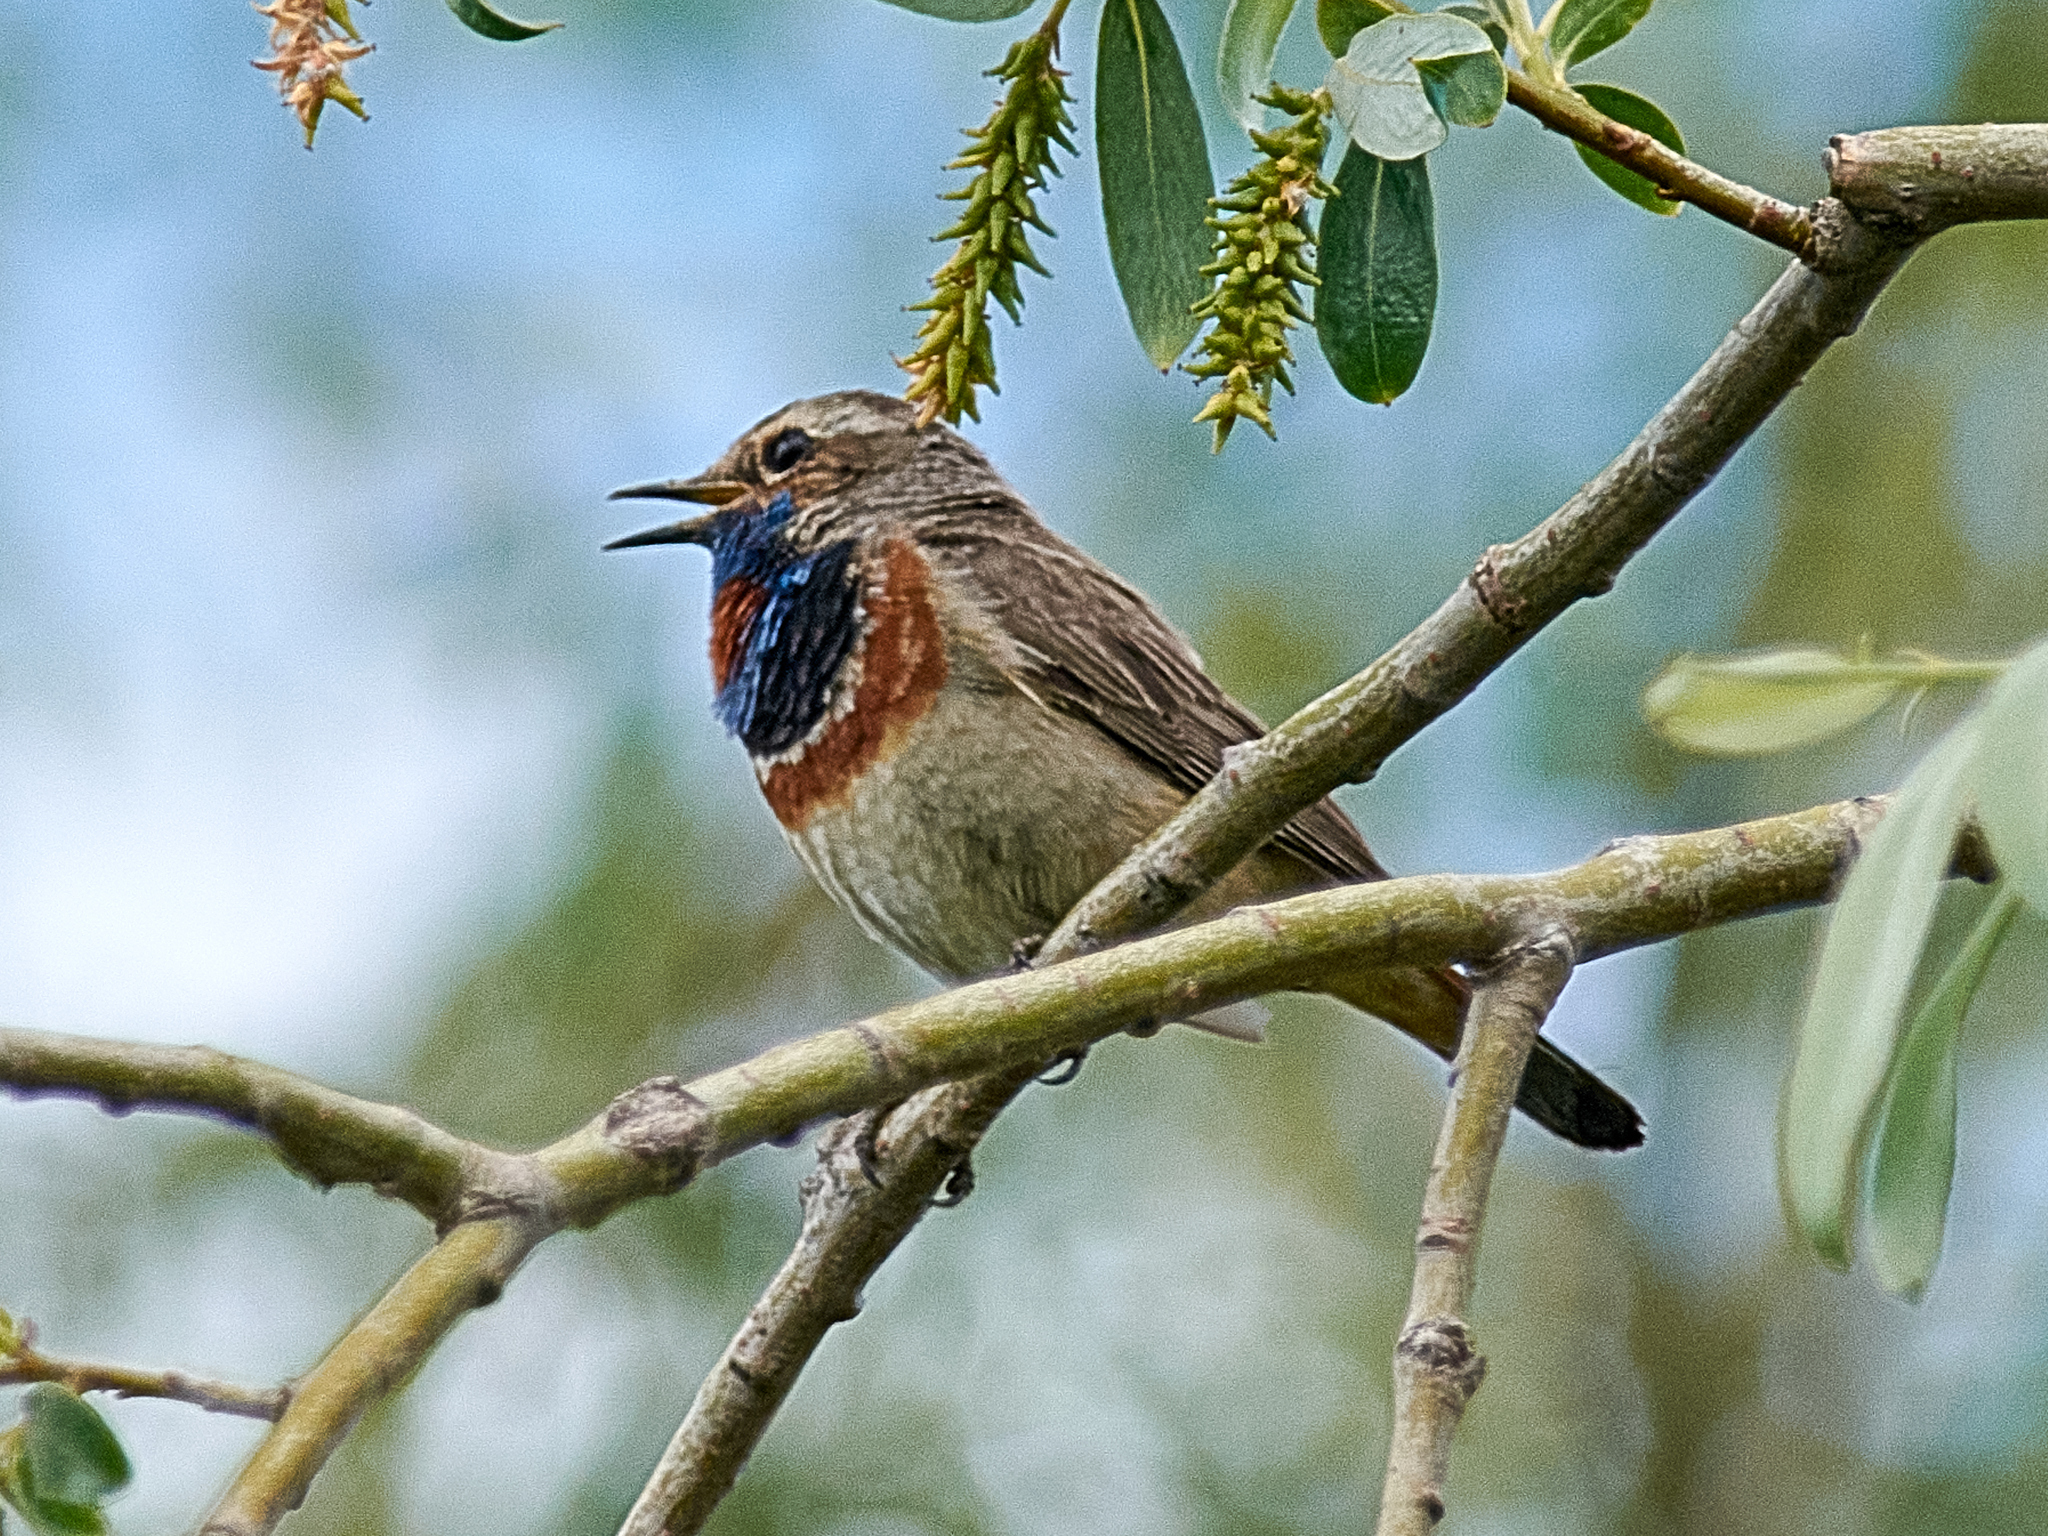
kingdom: Animalia
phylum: Chordata
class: Aves
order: Passeriformes
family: Muscicapidae
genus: Luscinia
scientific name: Luscinia svecica
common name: Bluethroat
